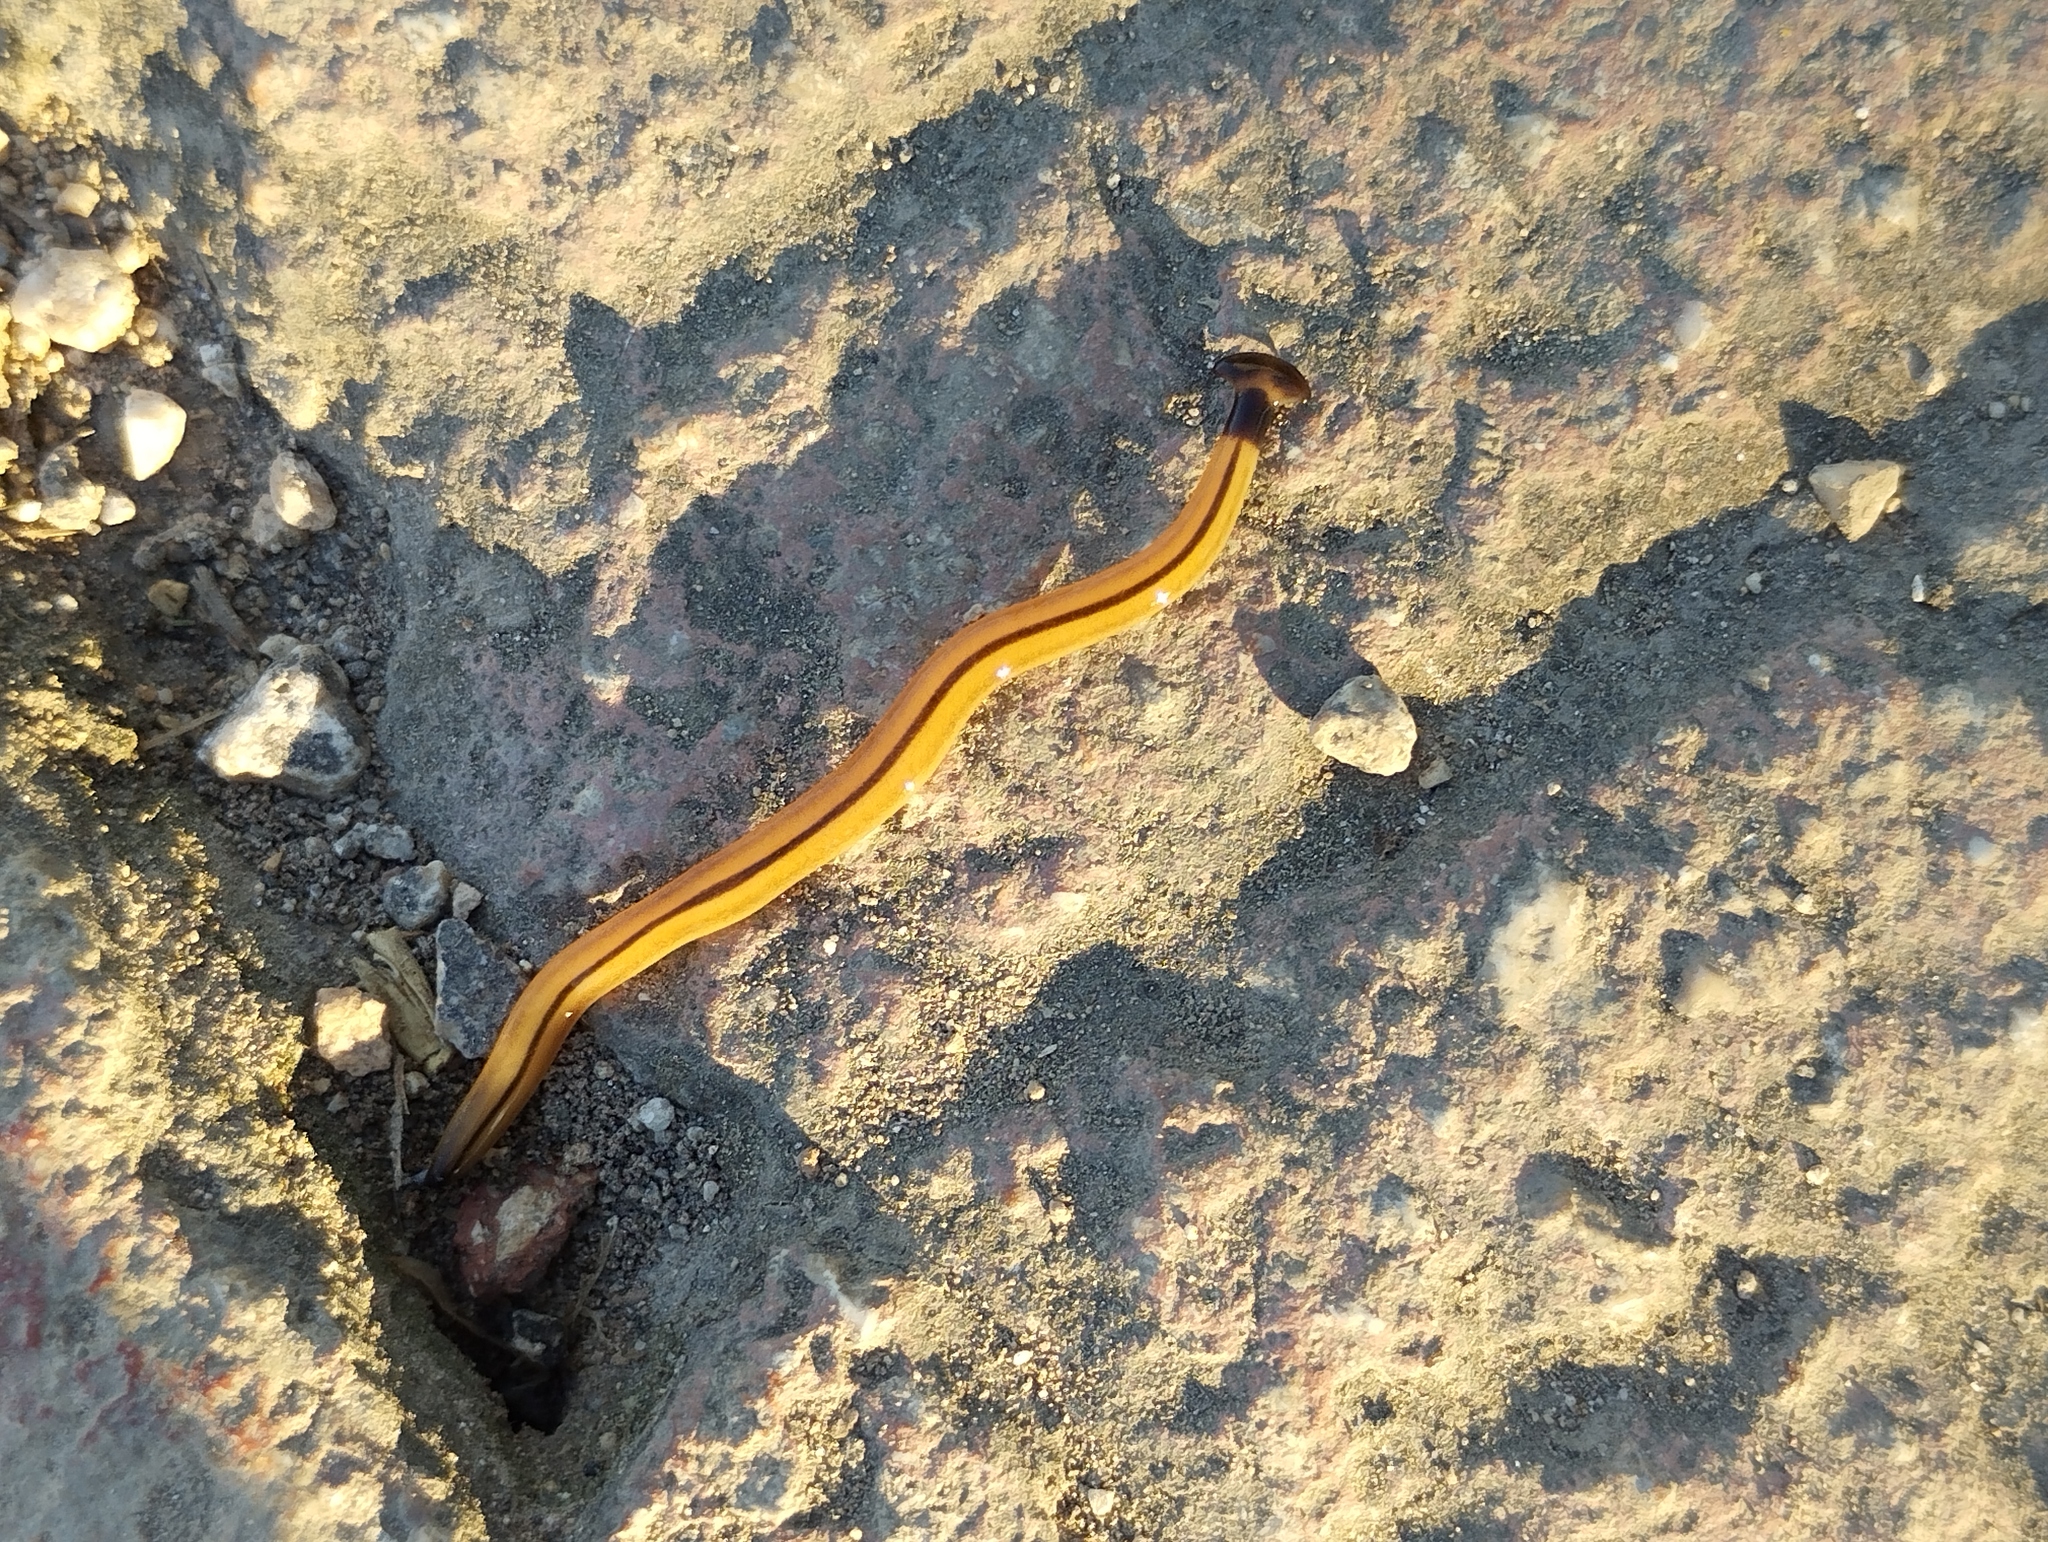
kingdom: Animalia
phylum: Platyhelminthes
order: Tricladida
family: Geoplanidae
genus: Bipalium
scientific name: Bipalium vagum
